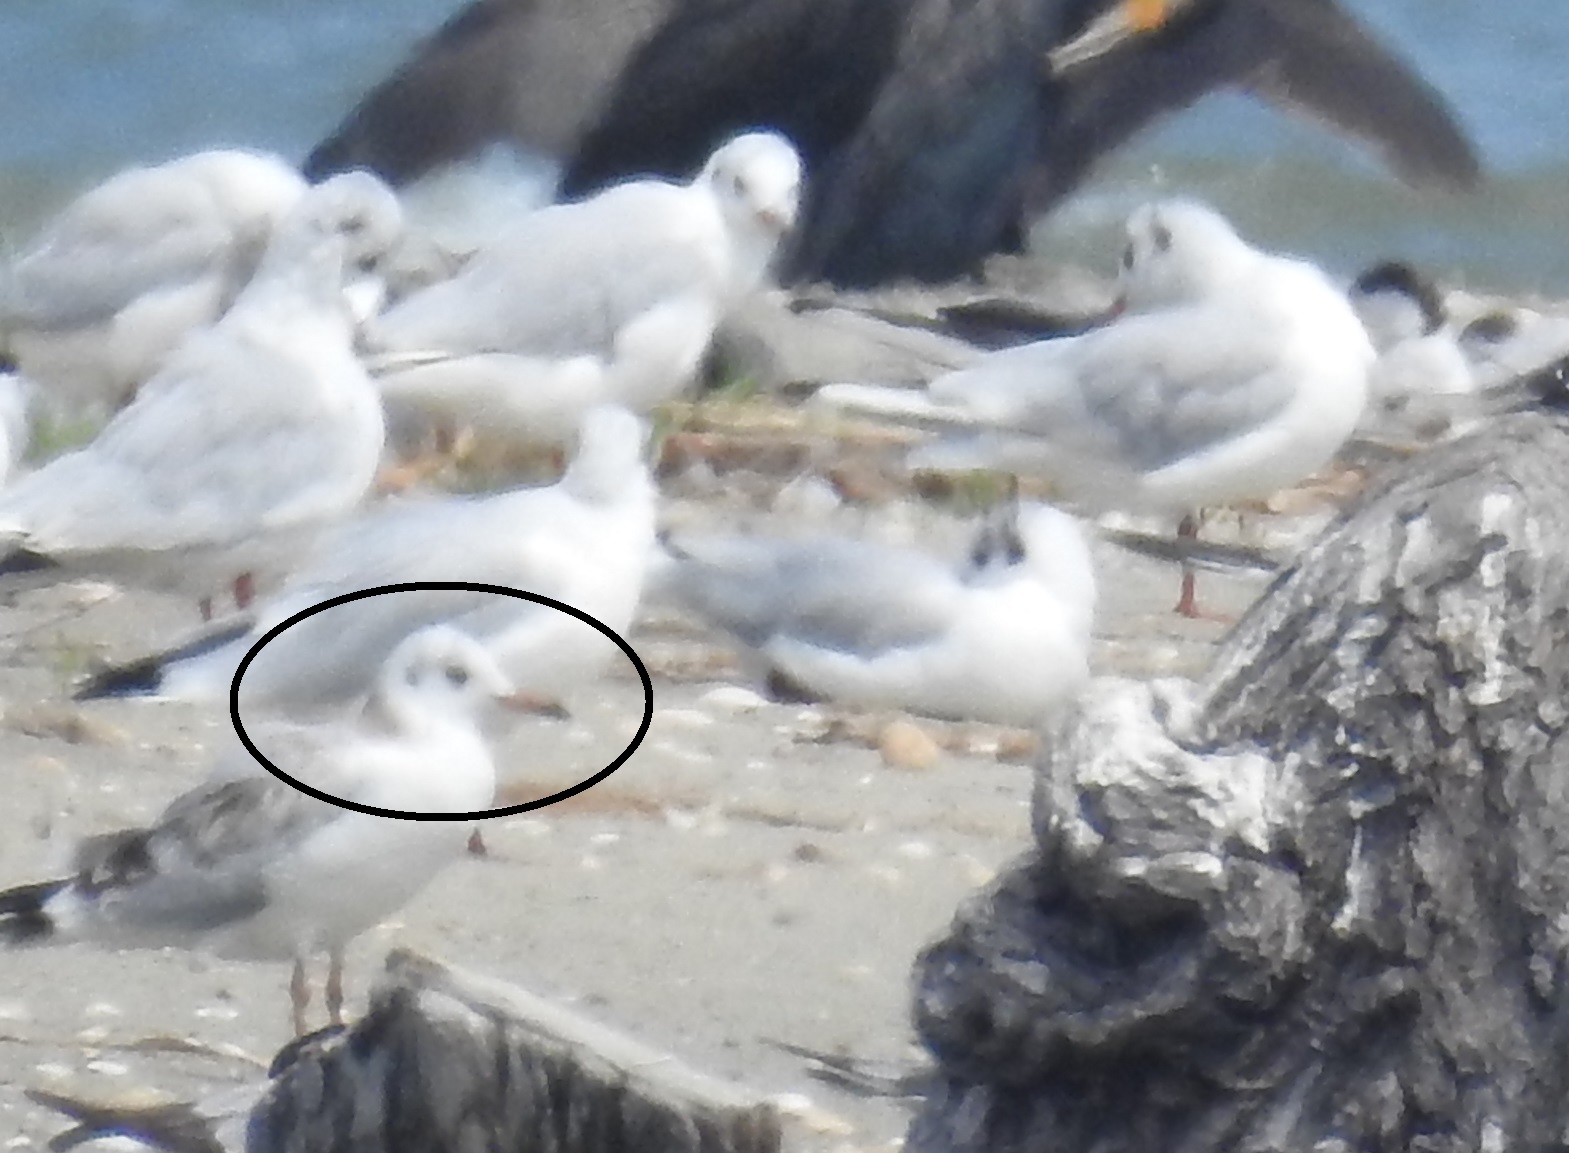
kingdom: Animalia
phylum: Chordata
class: Aves
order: Charadriiformes
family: Laridae
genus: Chroicocephalus
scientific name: Chroicocephalus ridibundus
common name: Black-headed gull
